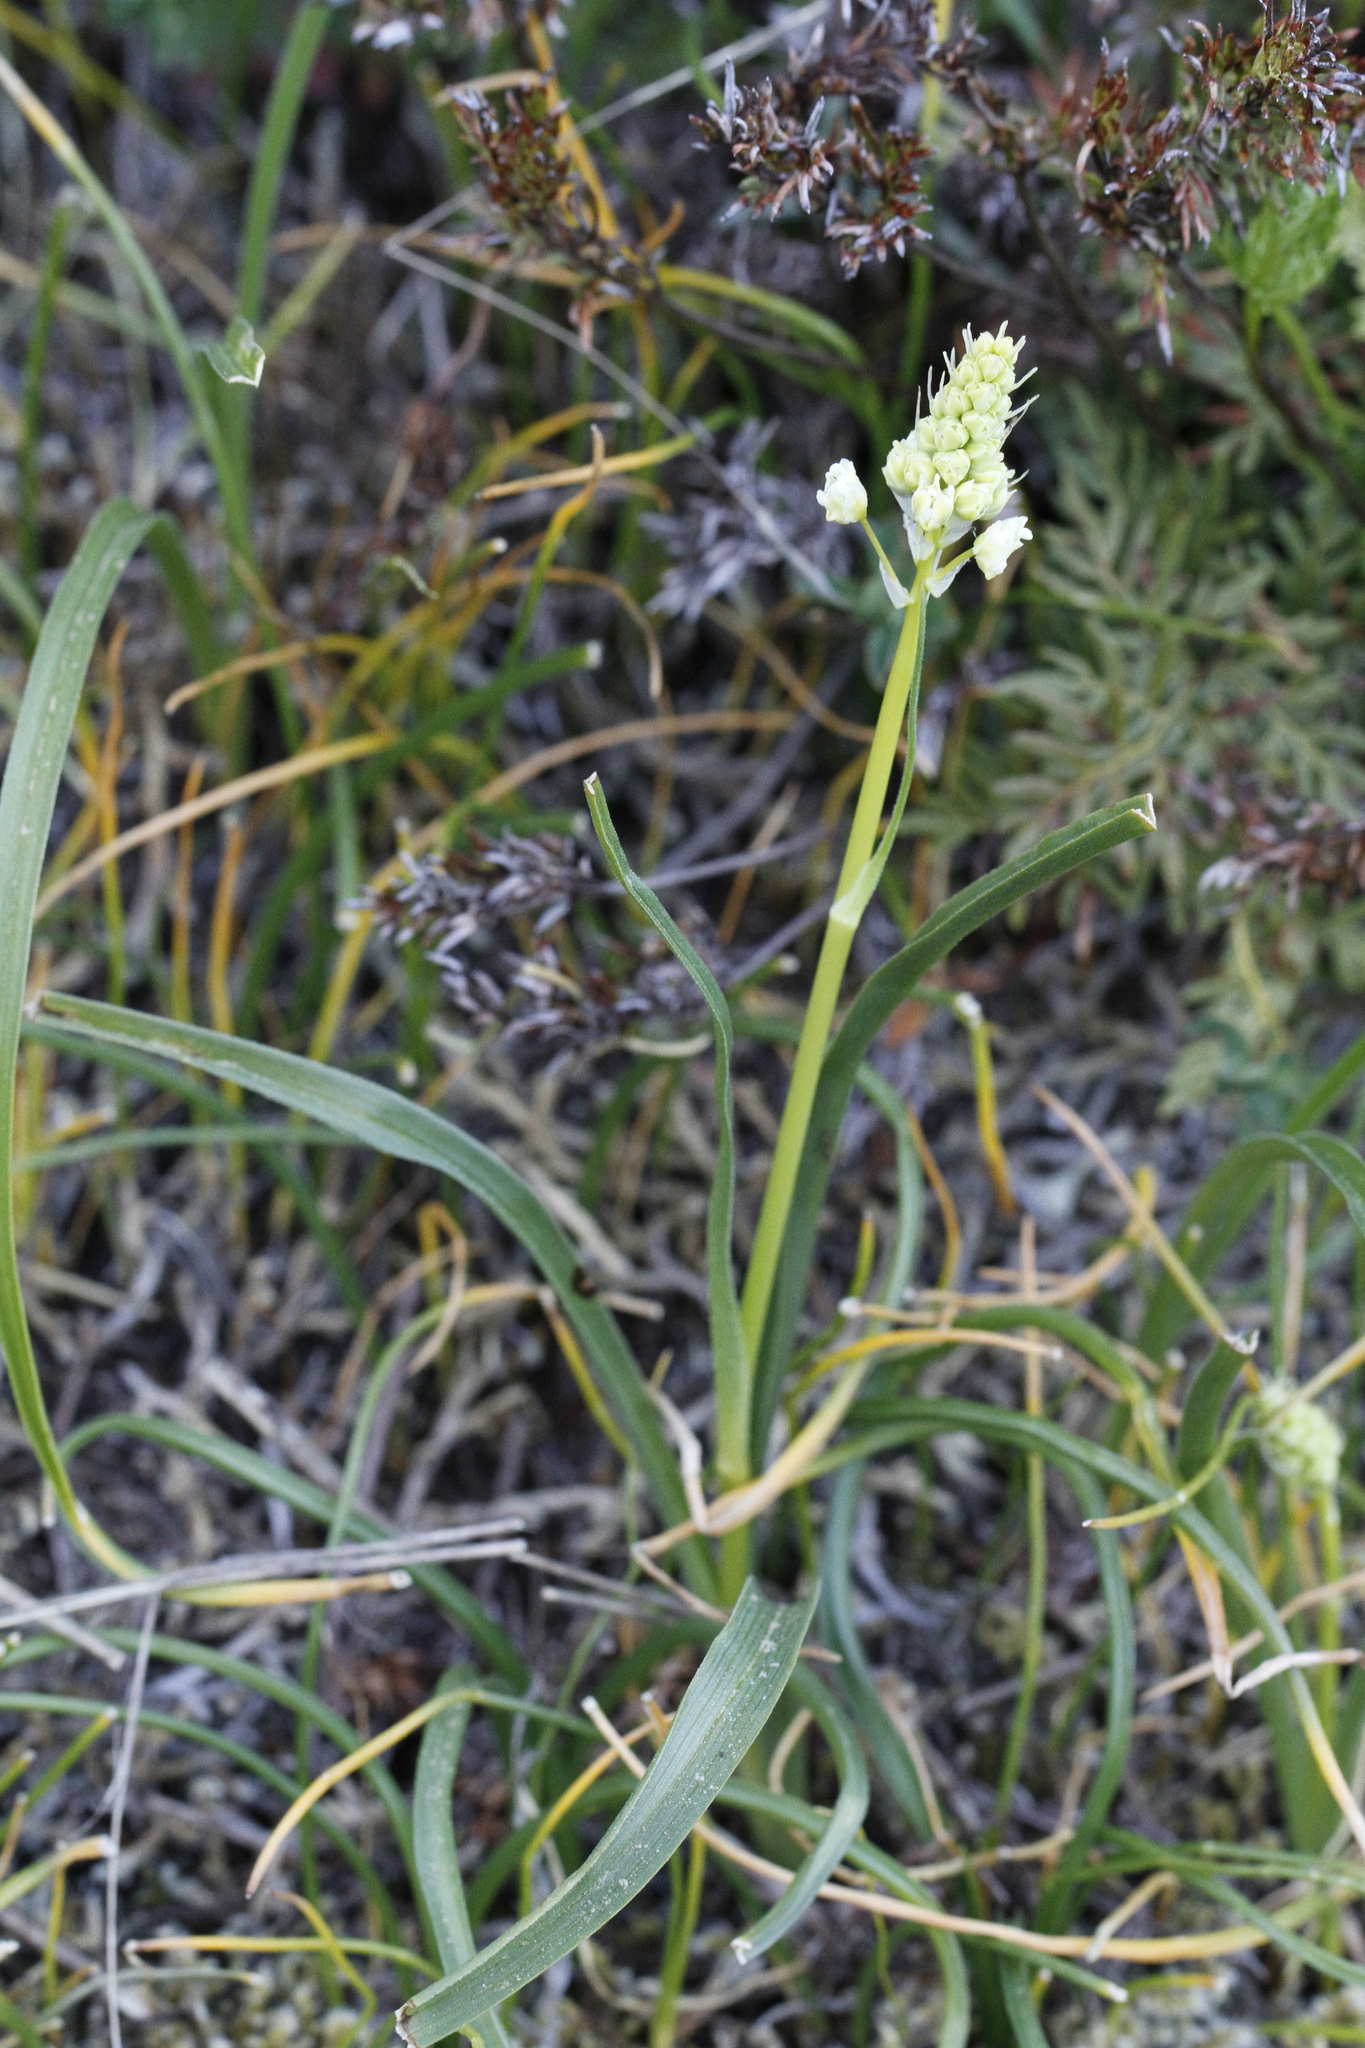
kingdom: Plantae
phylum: Tracheophyta
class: Liliopsida
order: Liliales
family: Melanthiaceae
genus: Toxicoscordion
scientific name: Toxicoscordion venenosum
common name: Meadow death camas
